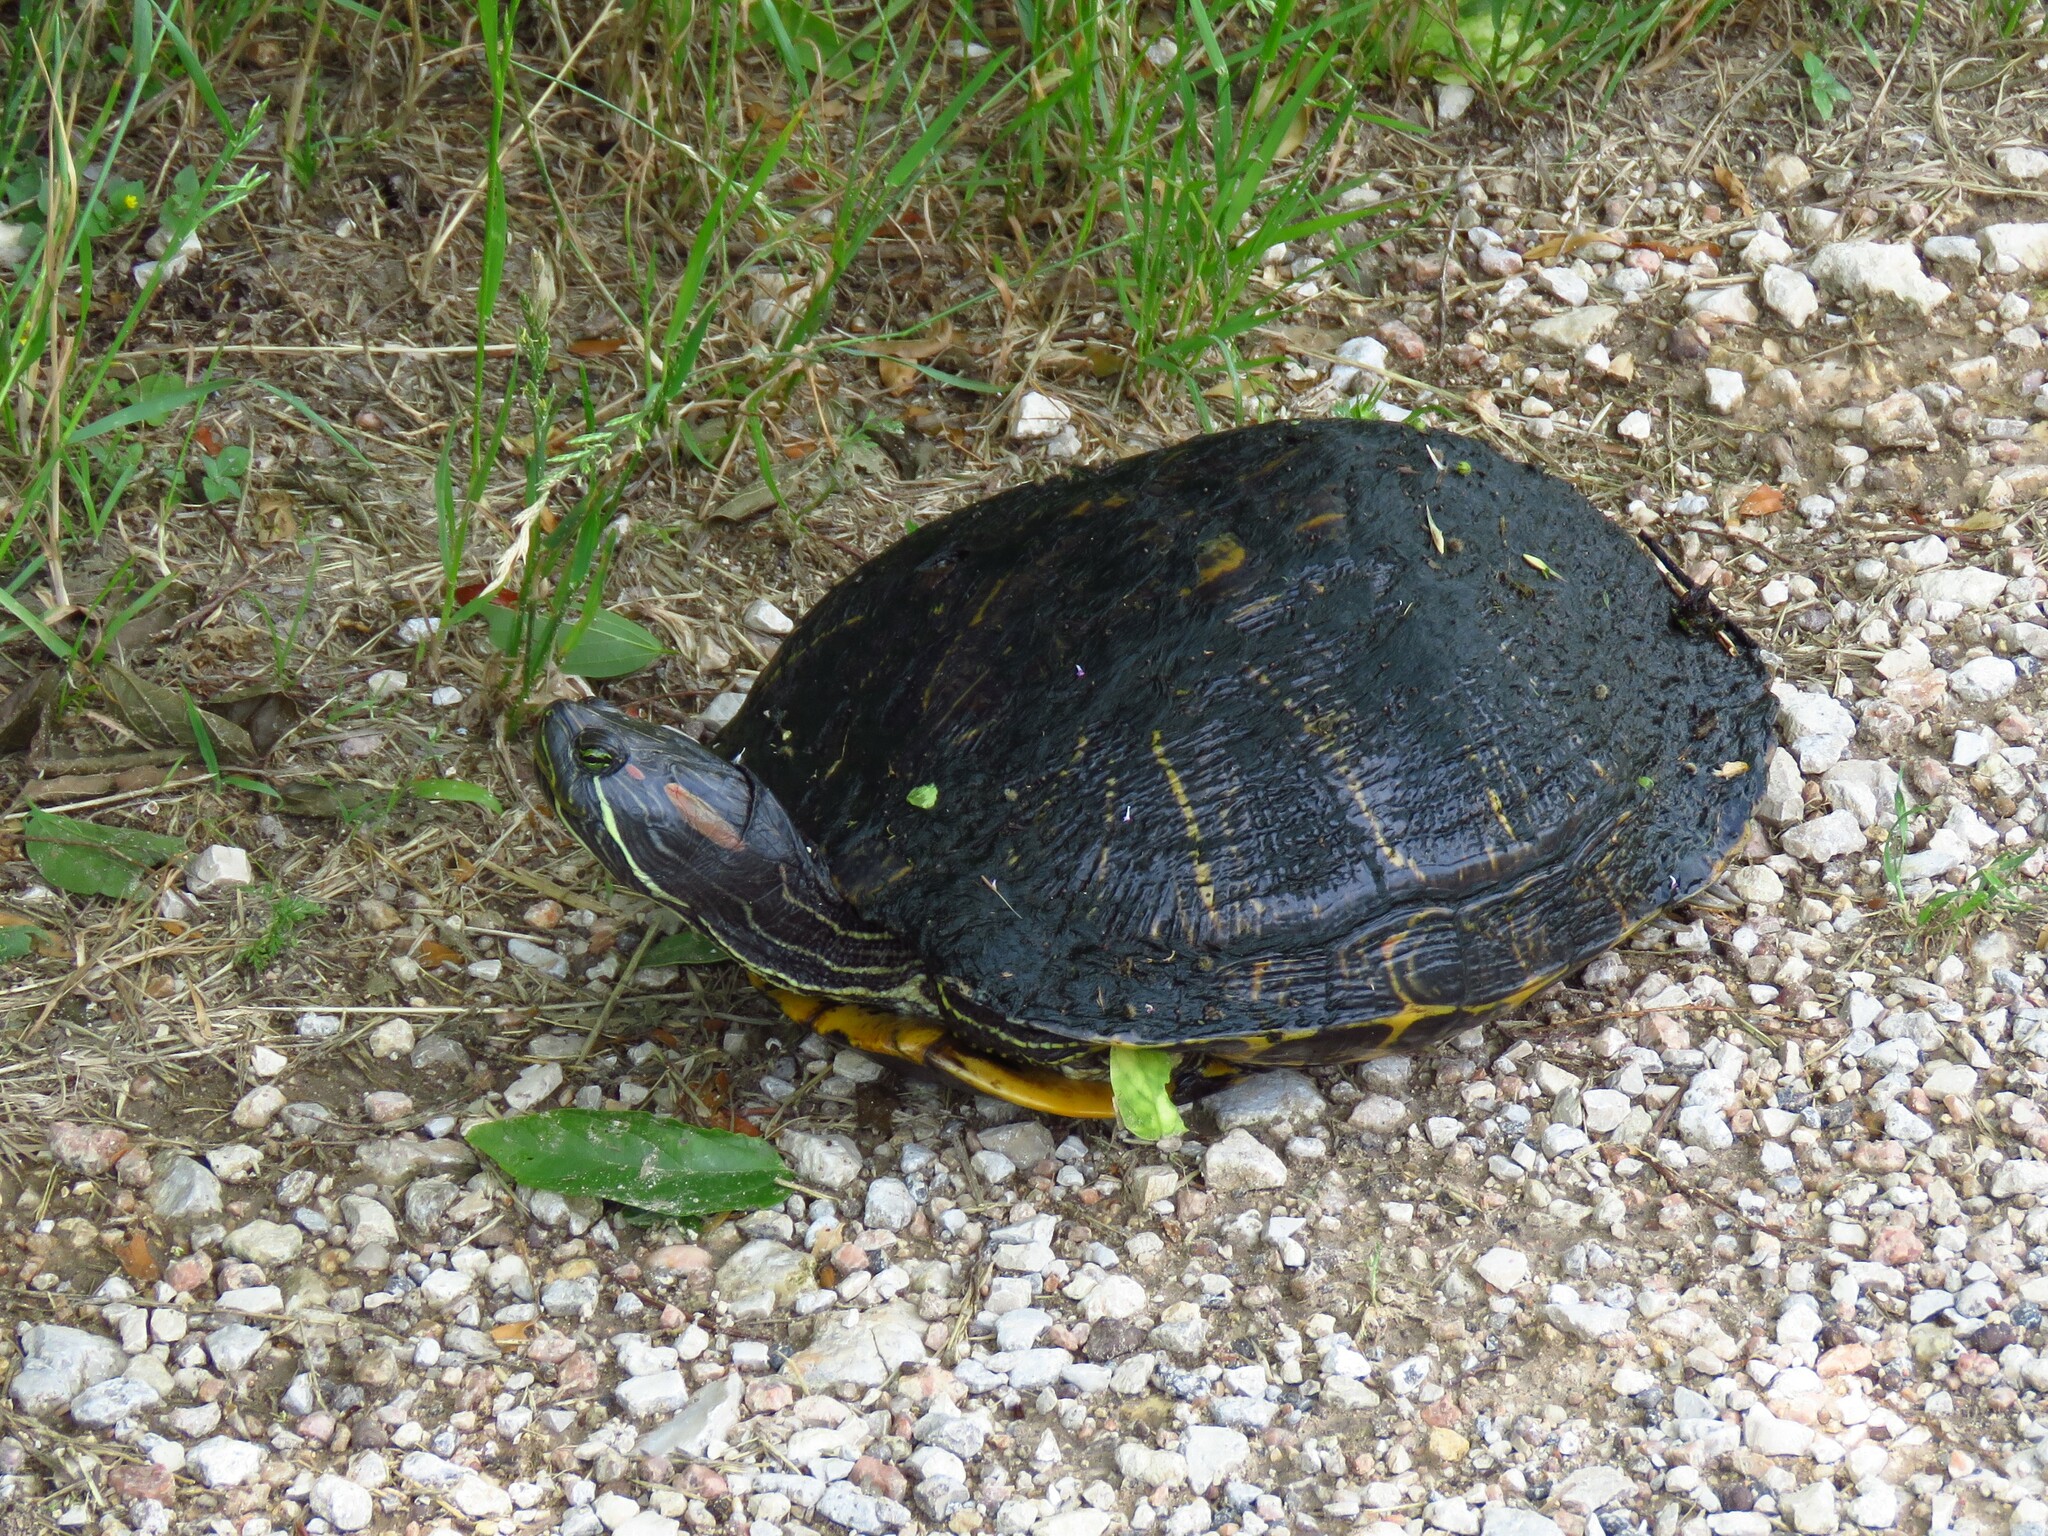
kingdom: Animalia
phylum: Chordata
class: Testudines
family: Emydidae
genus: Trachemys
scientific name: Trachemys scripta
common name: Slider
